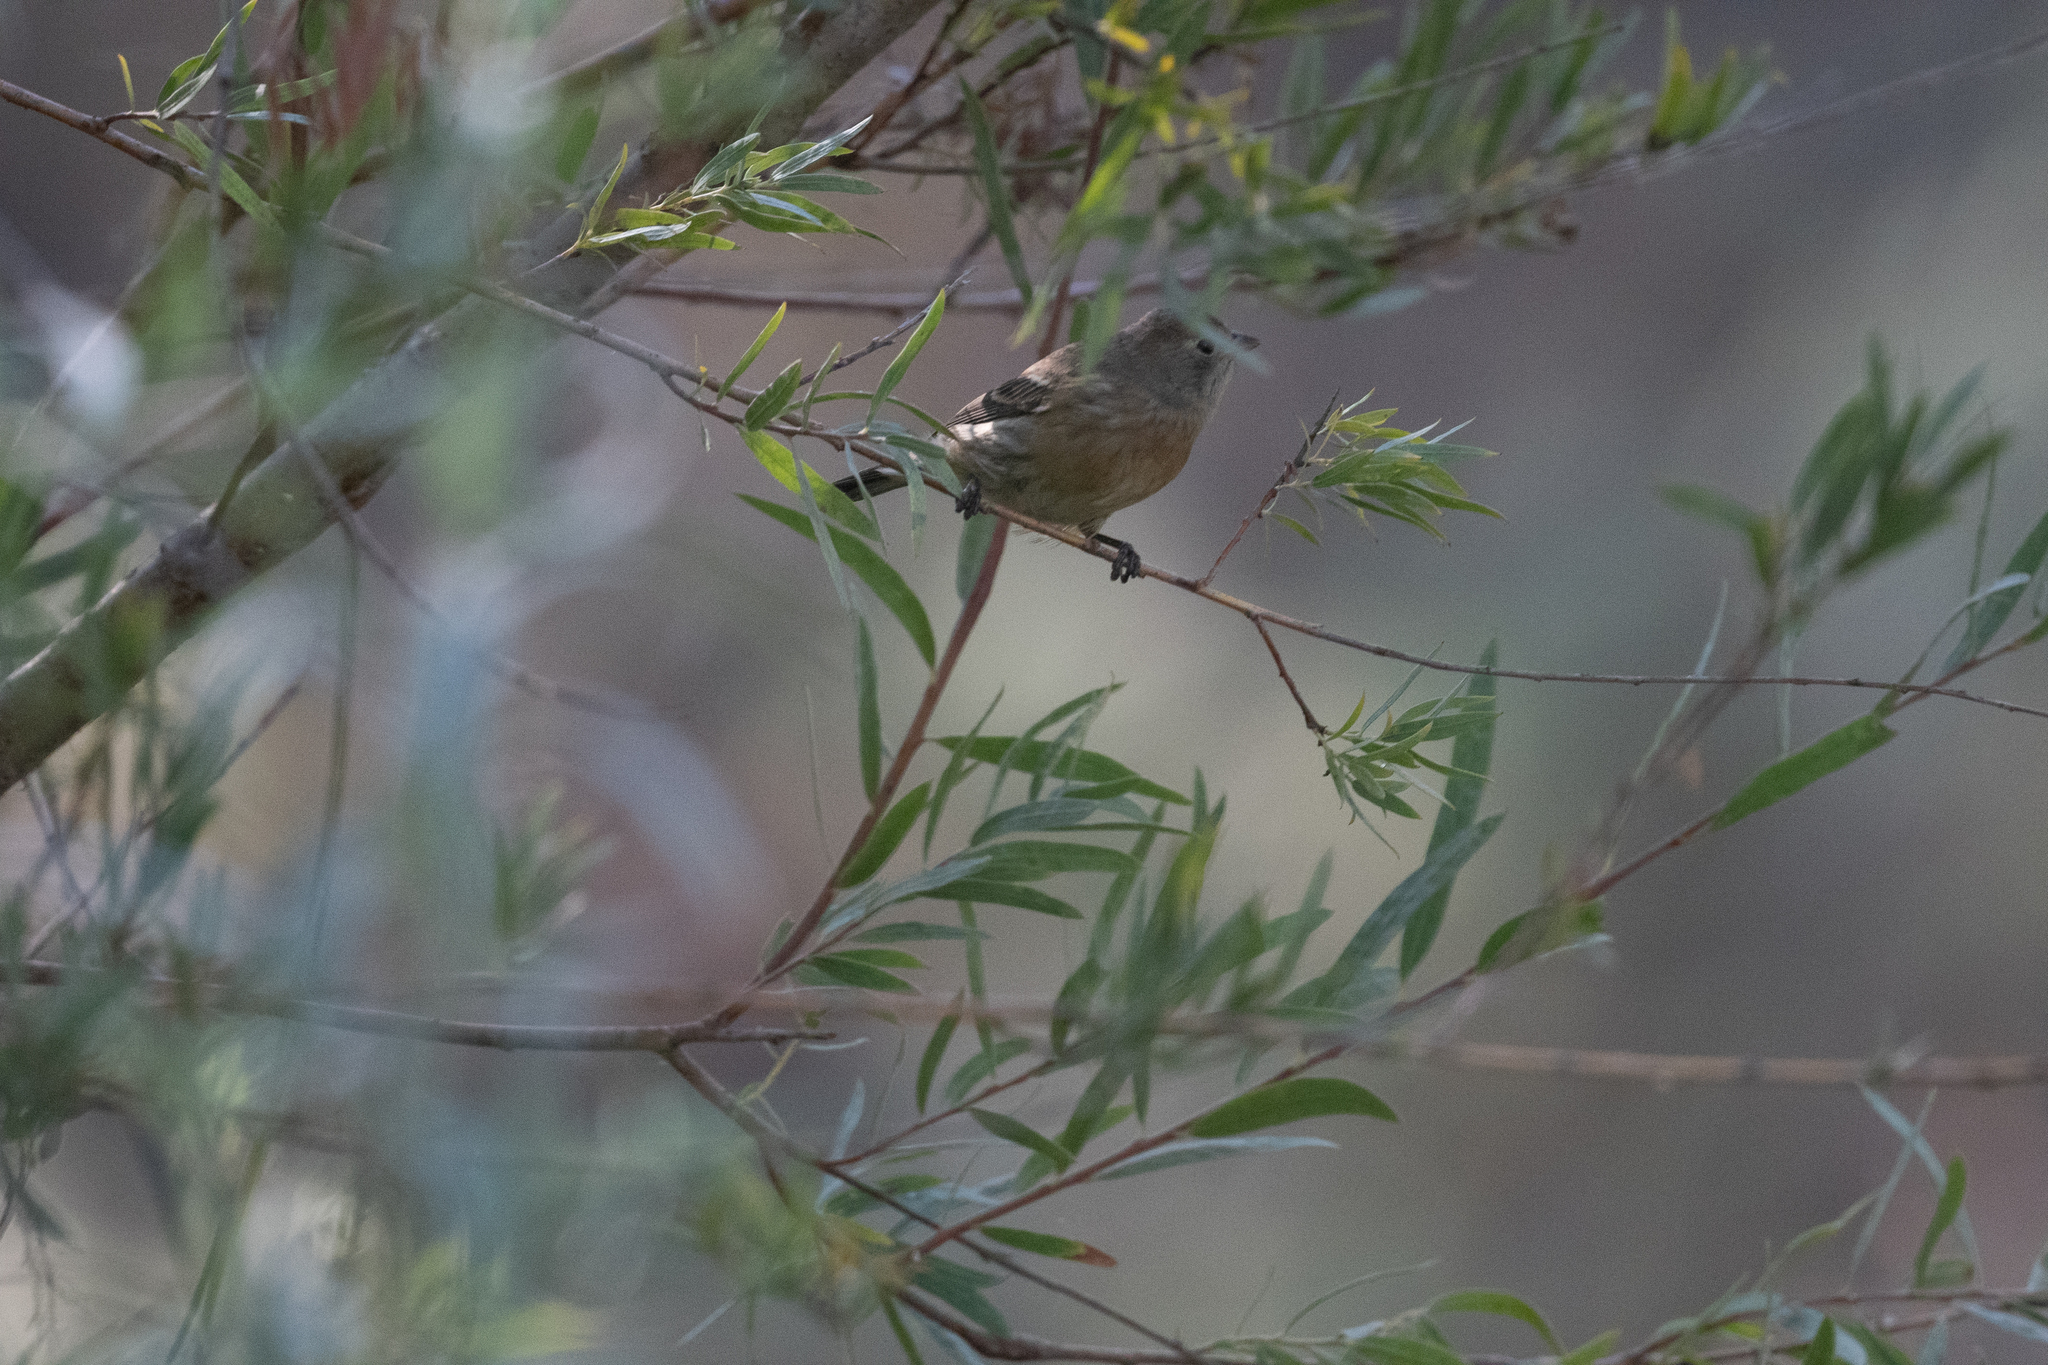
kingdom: Animalia
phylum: Chordata
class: Aves
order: Passeriformes
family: Cardinalidae
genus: Passerina
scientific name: Passerina amoena
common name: Lazuli bunting
